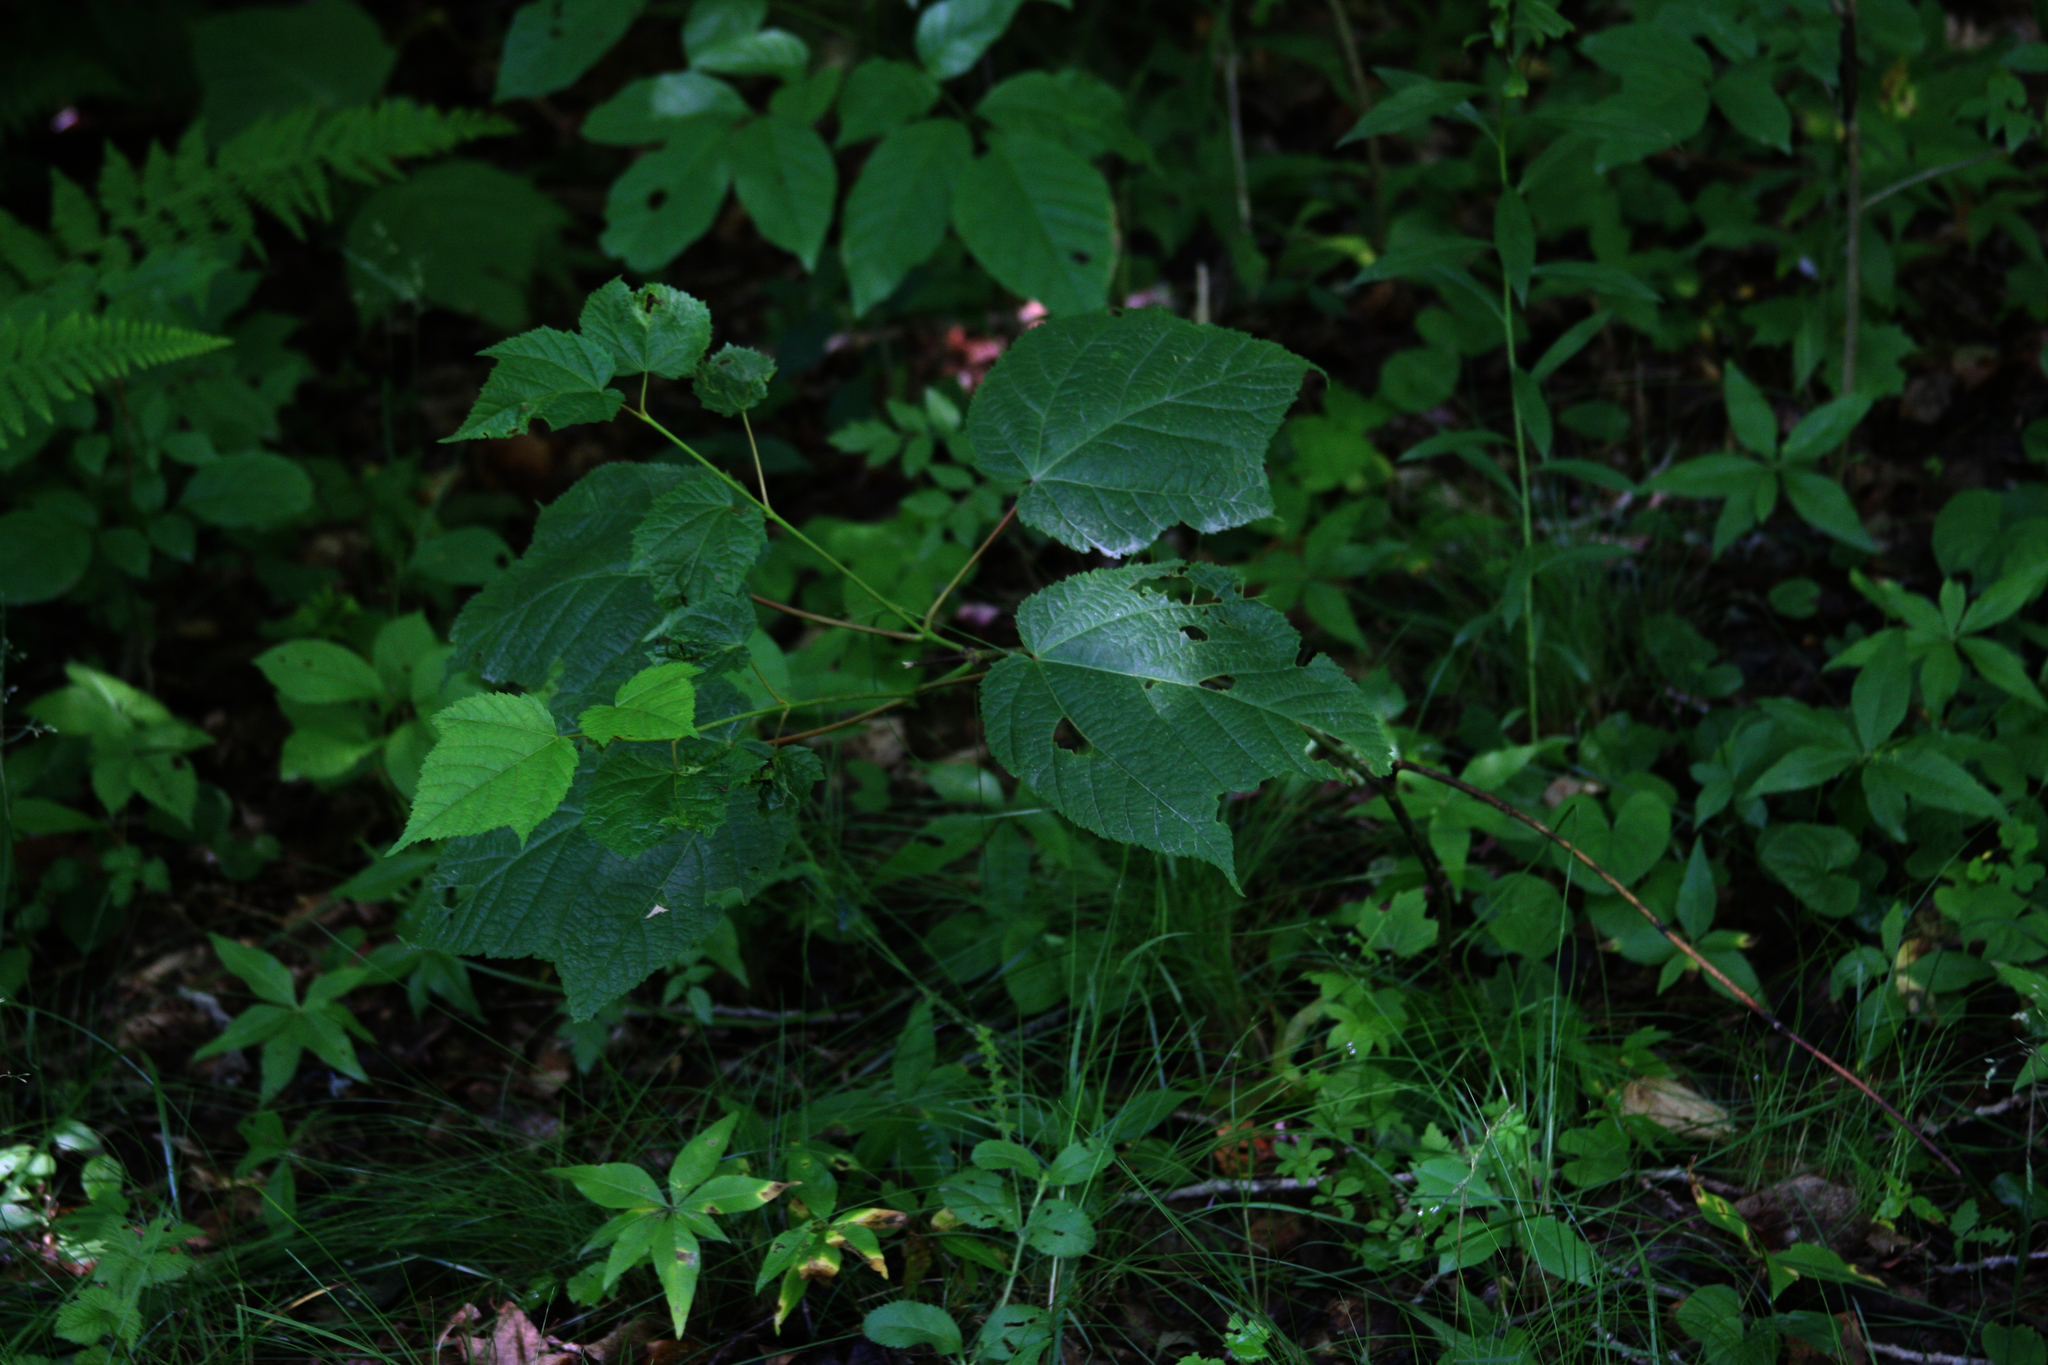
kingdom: Plantae
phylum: Tracheophyta
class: Magnoliopsida
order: Sapindales
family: Sapindaceae
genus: Acer
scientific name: Acer pensylvanicum
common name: Moosewood
